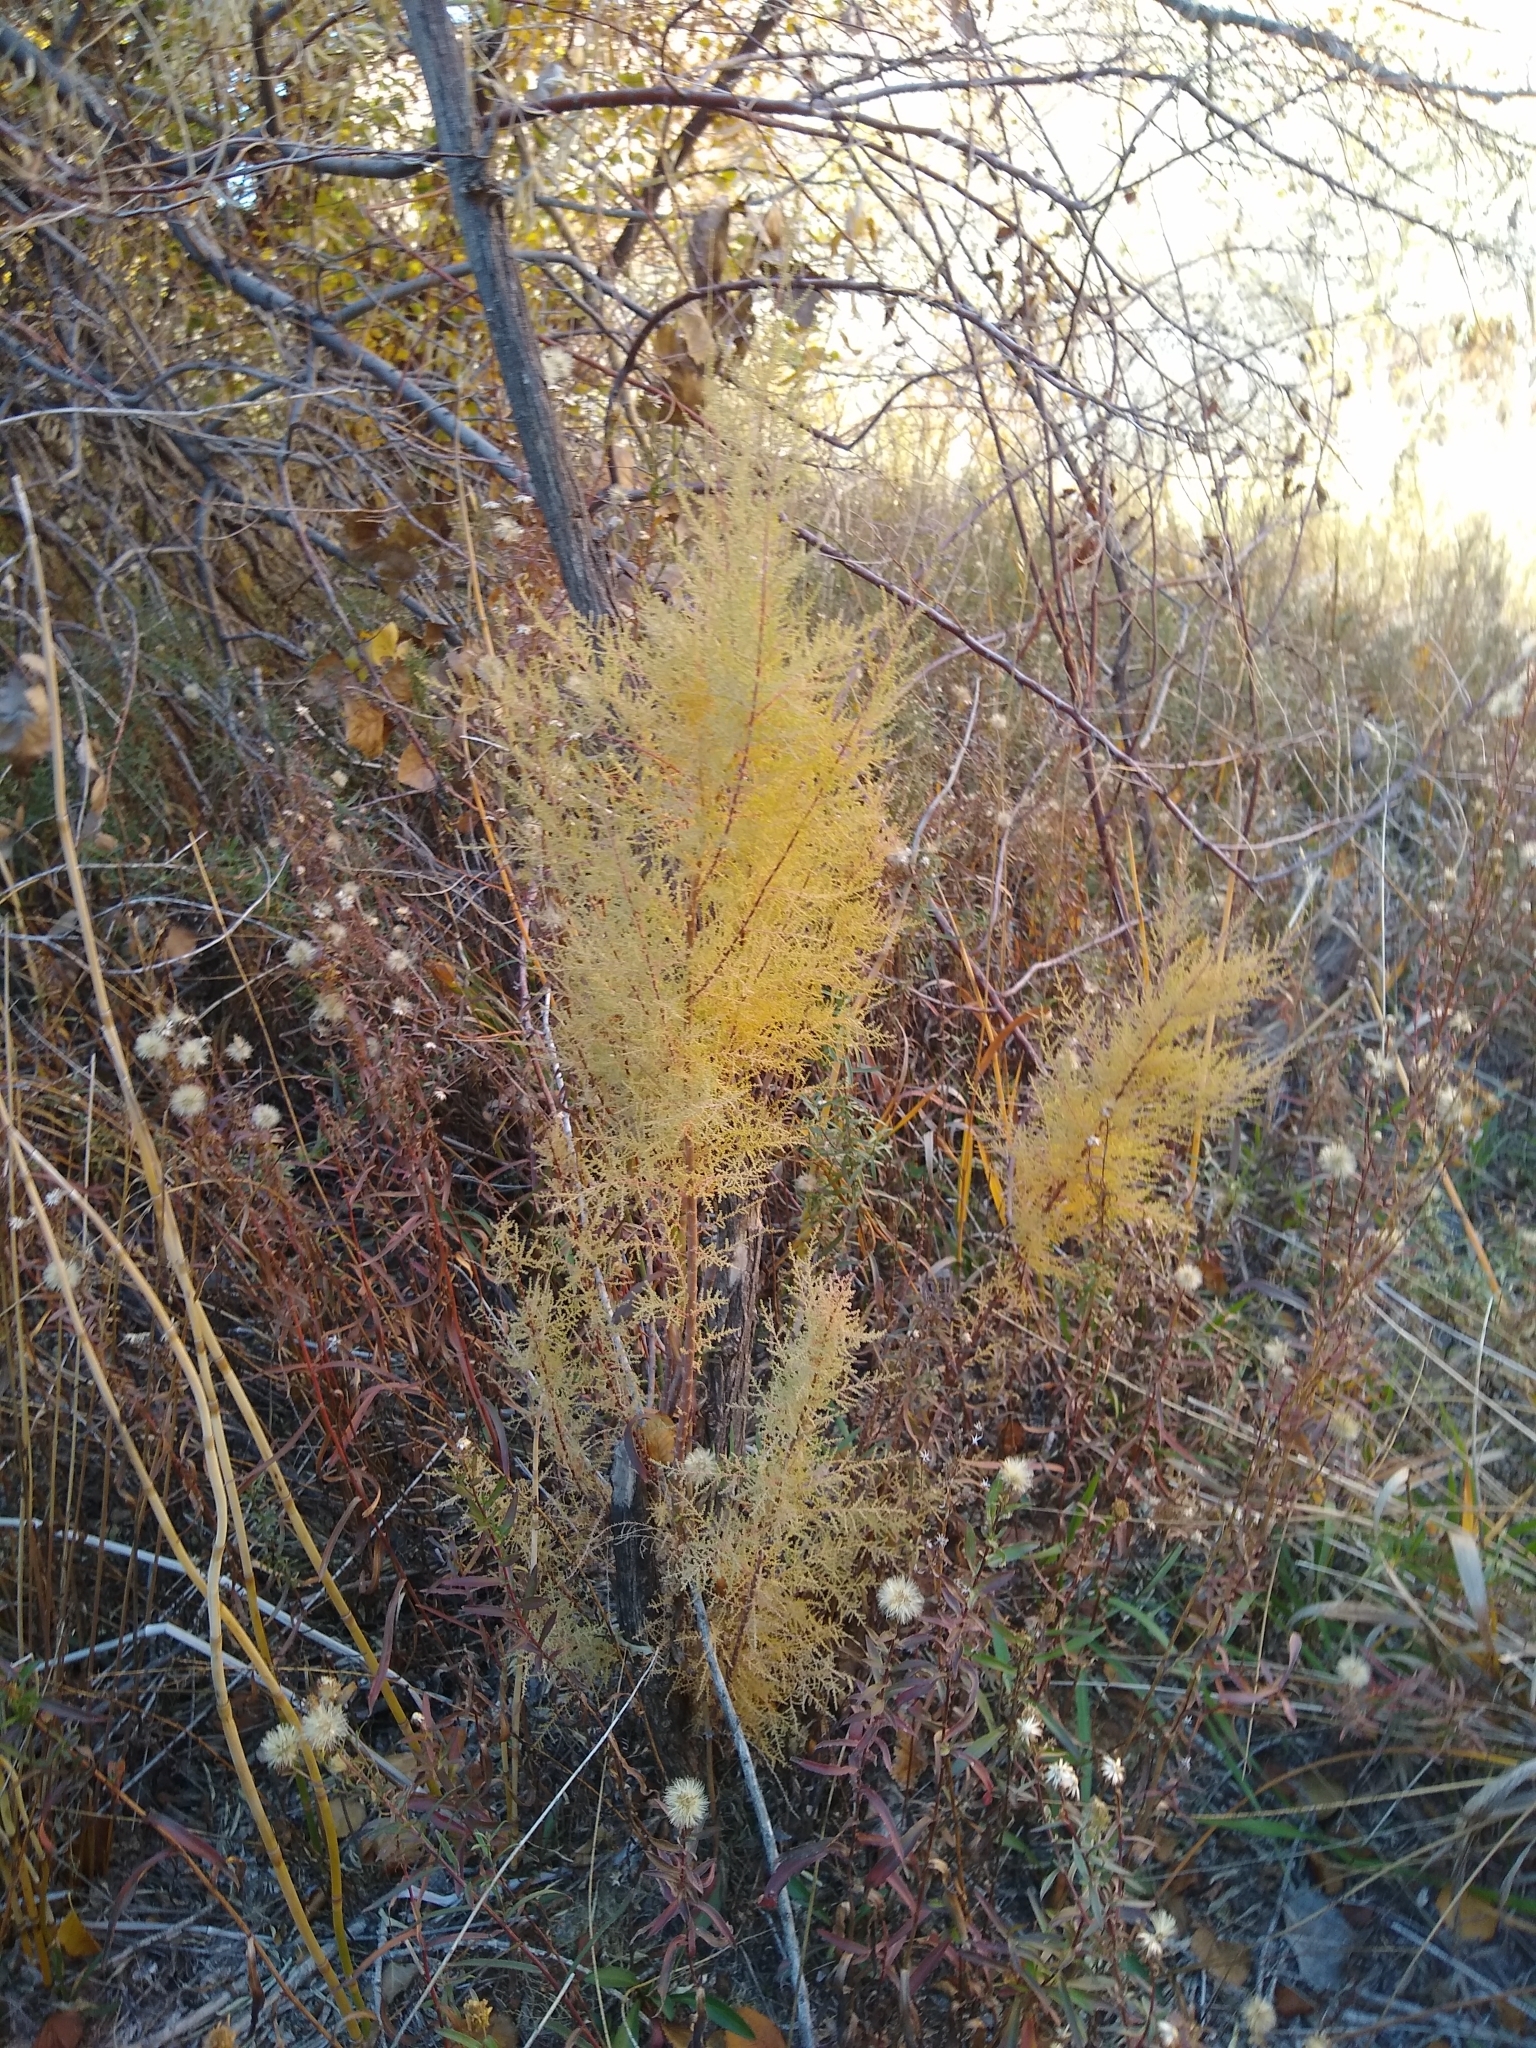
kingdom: Plantae
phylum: Tracheophyta
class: Magnoliopsida
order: Caryophyllales
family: Tamaricaceae
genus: Tamarix
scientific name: Tamarix ramosissima
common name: Pink tamarisk
